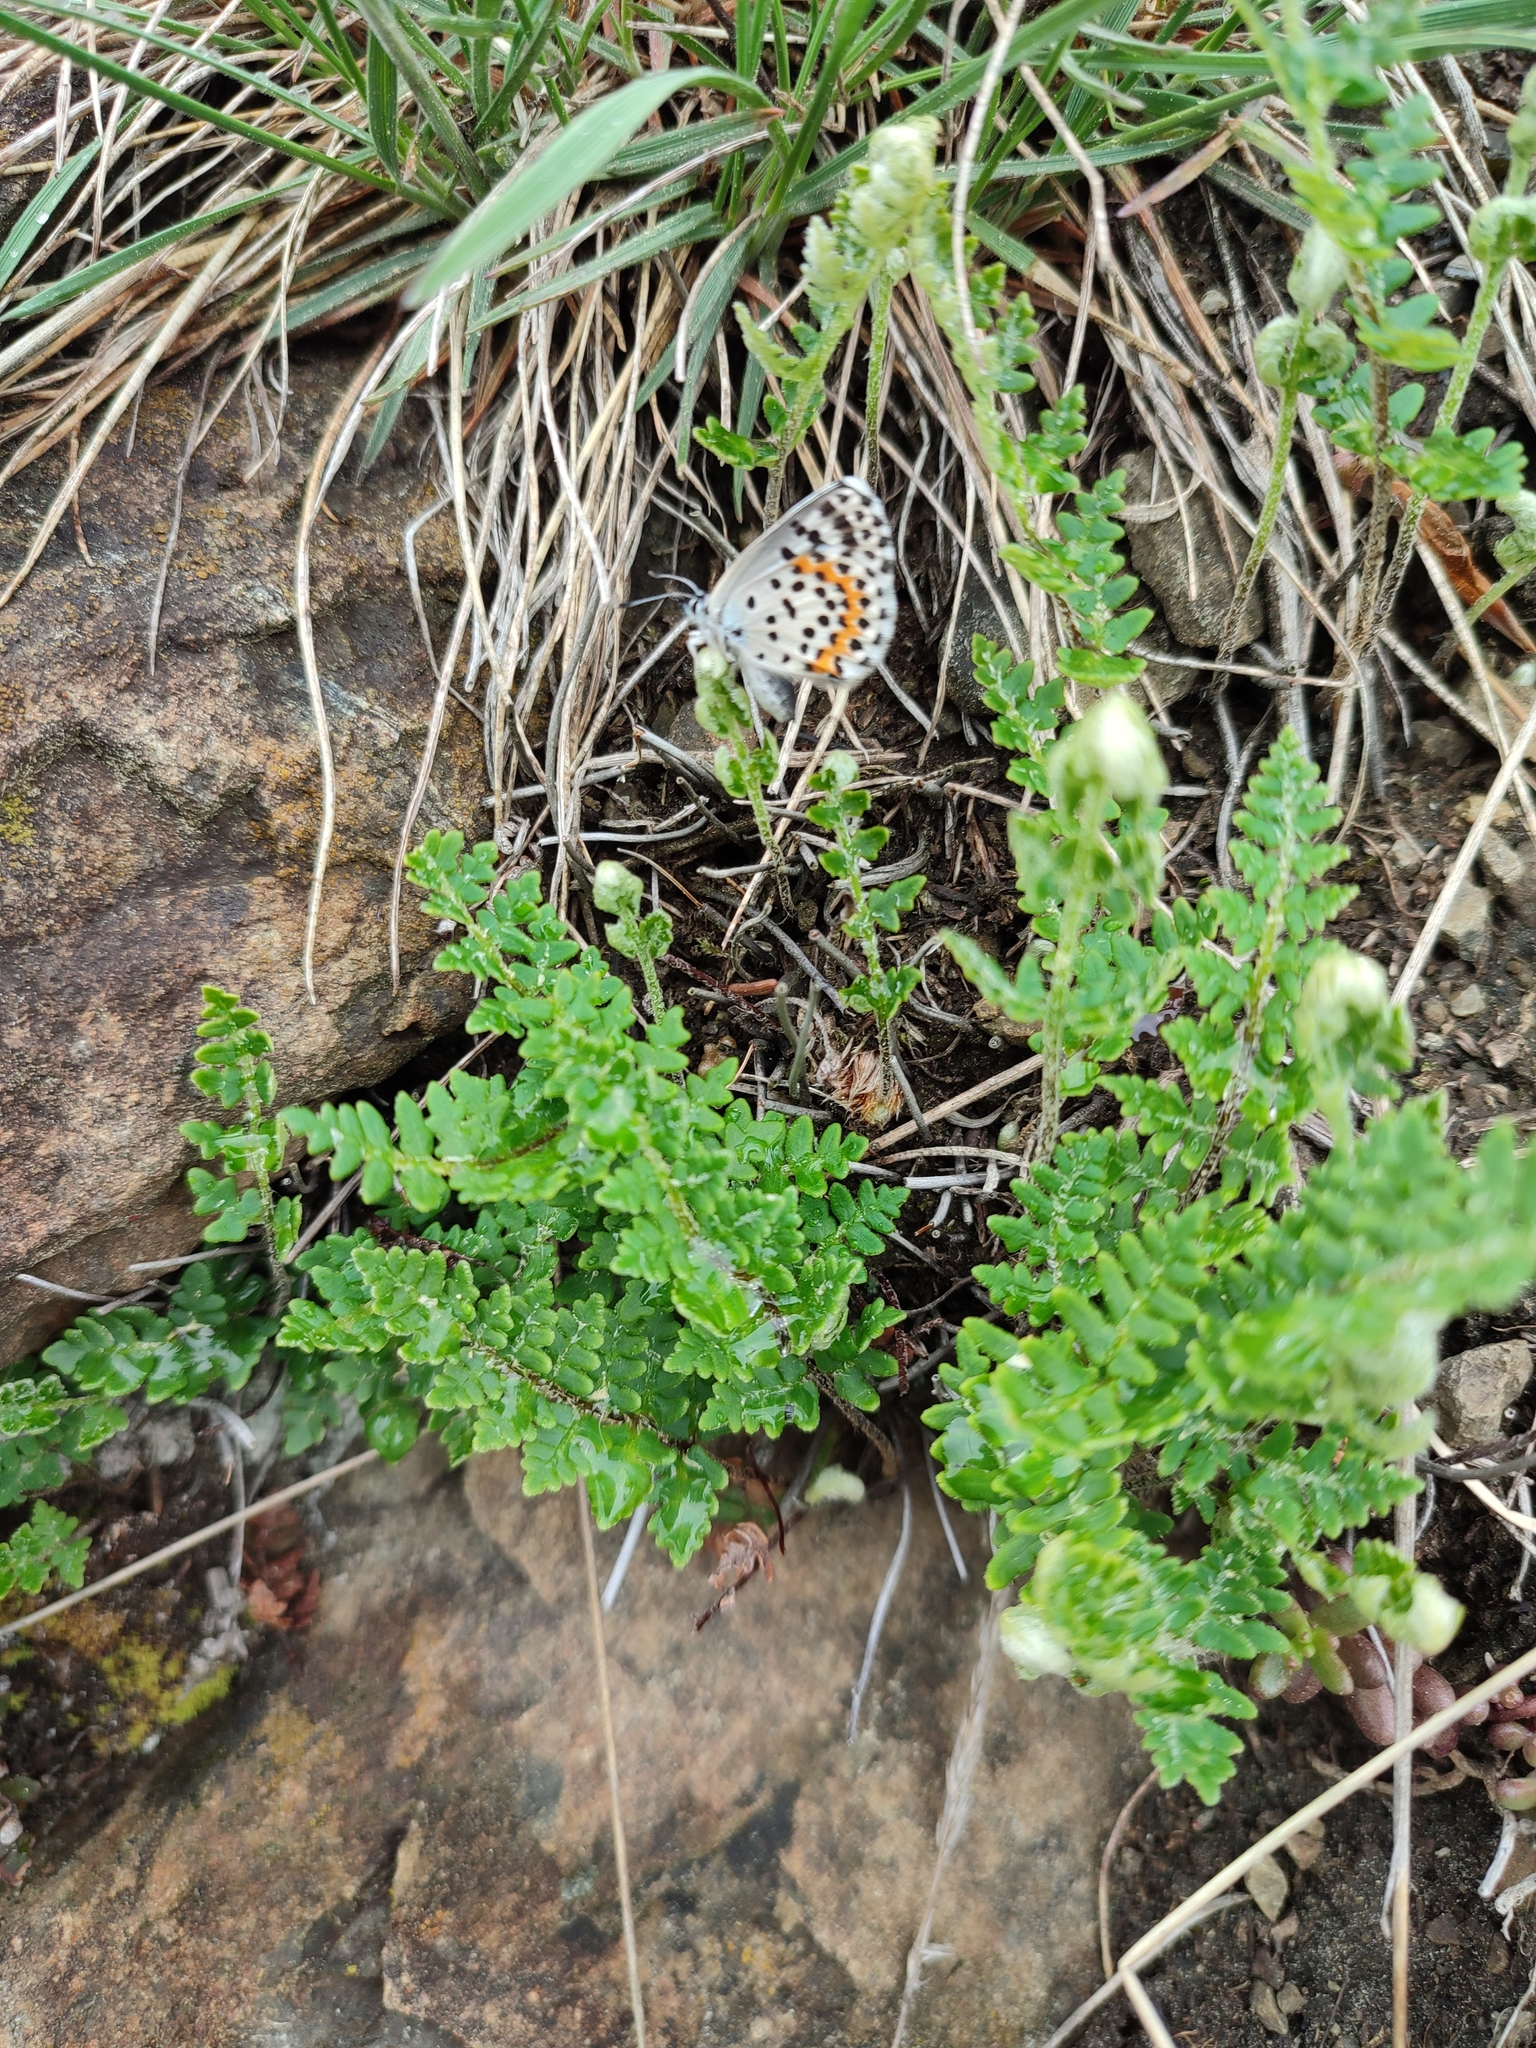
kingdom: Animalia
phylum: Arthropoda
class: Insecta
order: Lepidoptera
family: Lycaenidae
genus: Scolitantides
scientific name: Scolitantides orion
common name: Chequered blue
